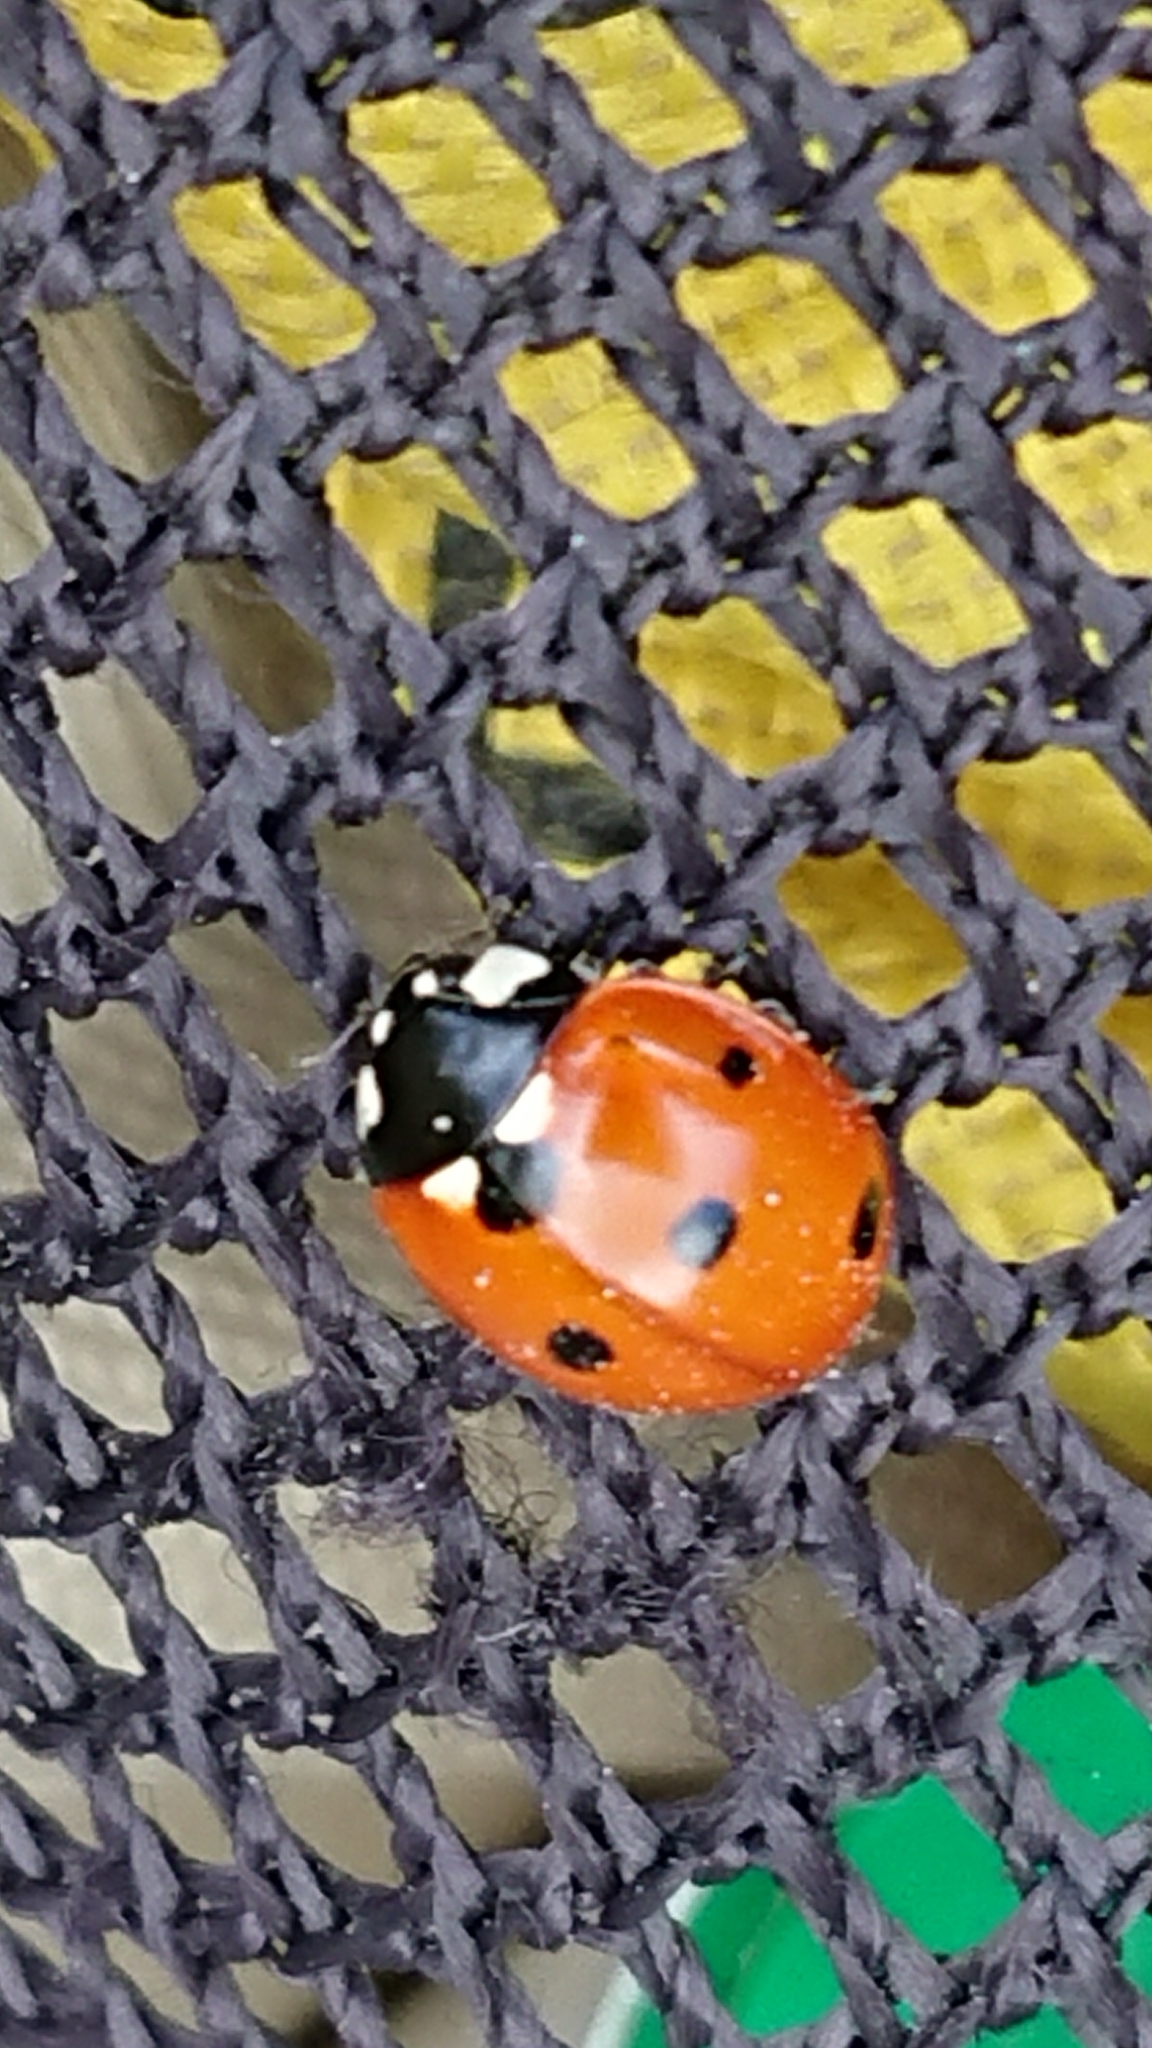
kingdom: Animalia
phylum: Arthropoda
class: Insecta
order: Coleoptera
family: Coccinellidae
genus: Coccinella
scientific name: Coccinella septempunctata
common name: Sevenspotted lady beetle
